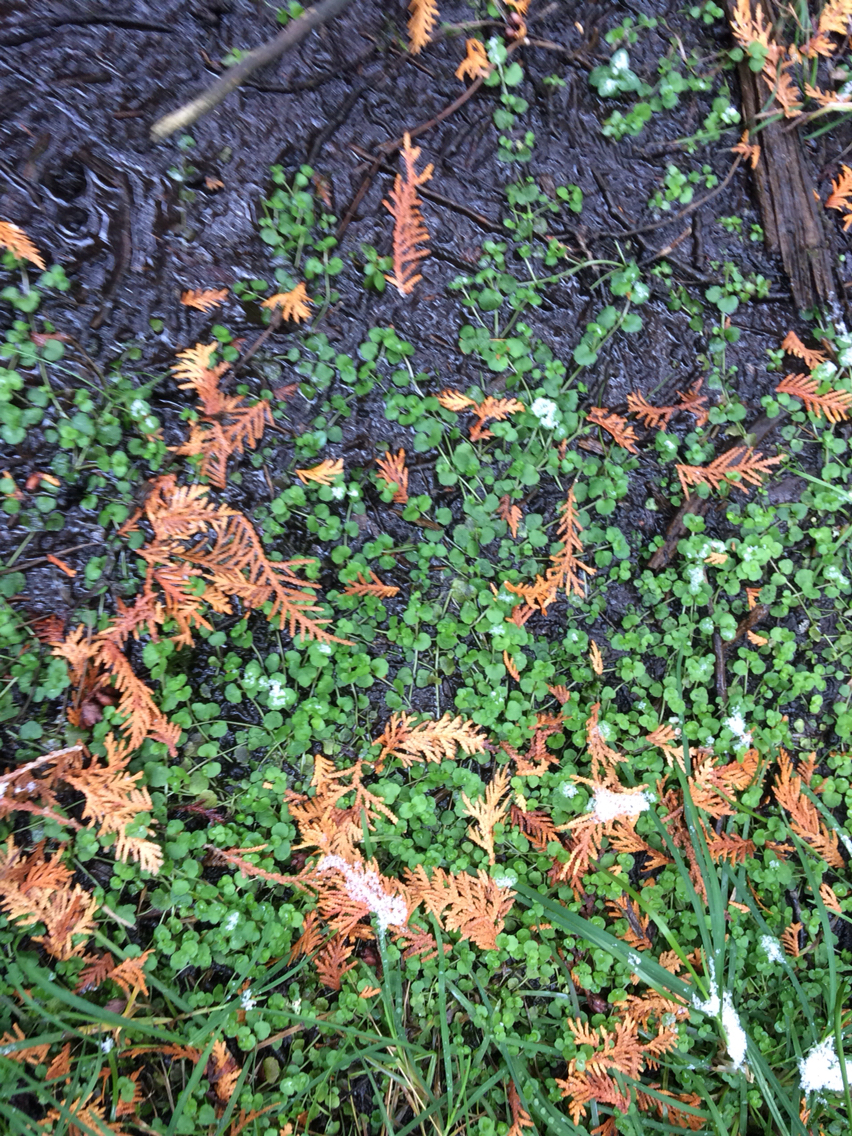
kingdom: Plantae
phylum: Tracheophyta
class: Magnoliopsida
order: Saxifragales
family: Saxifragaceae
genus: Chrysosplenium
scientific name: Chrysosplenium americanum
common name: American golden-saxifrage
